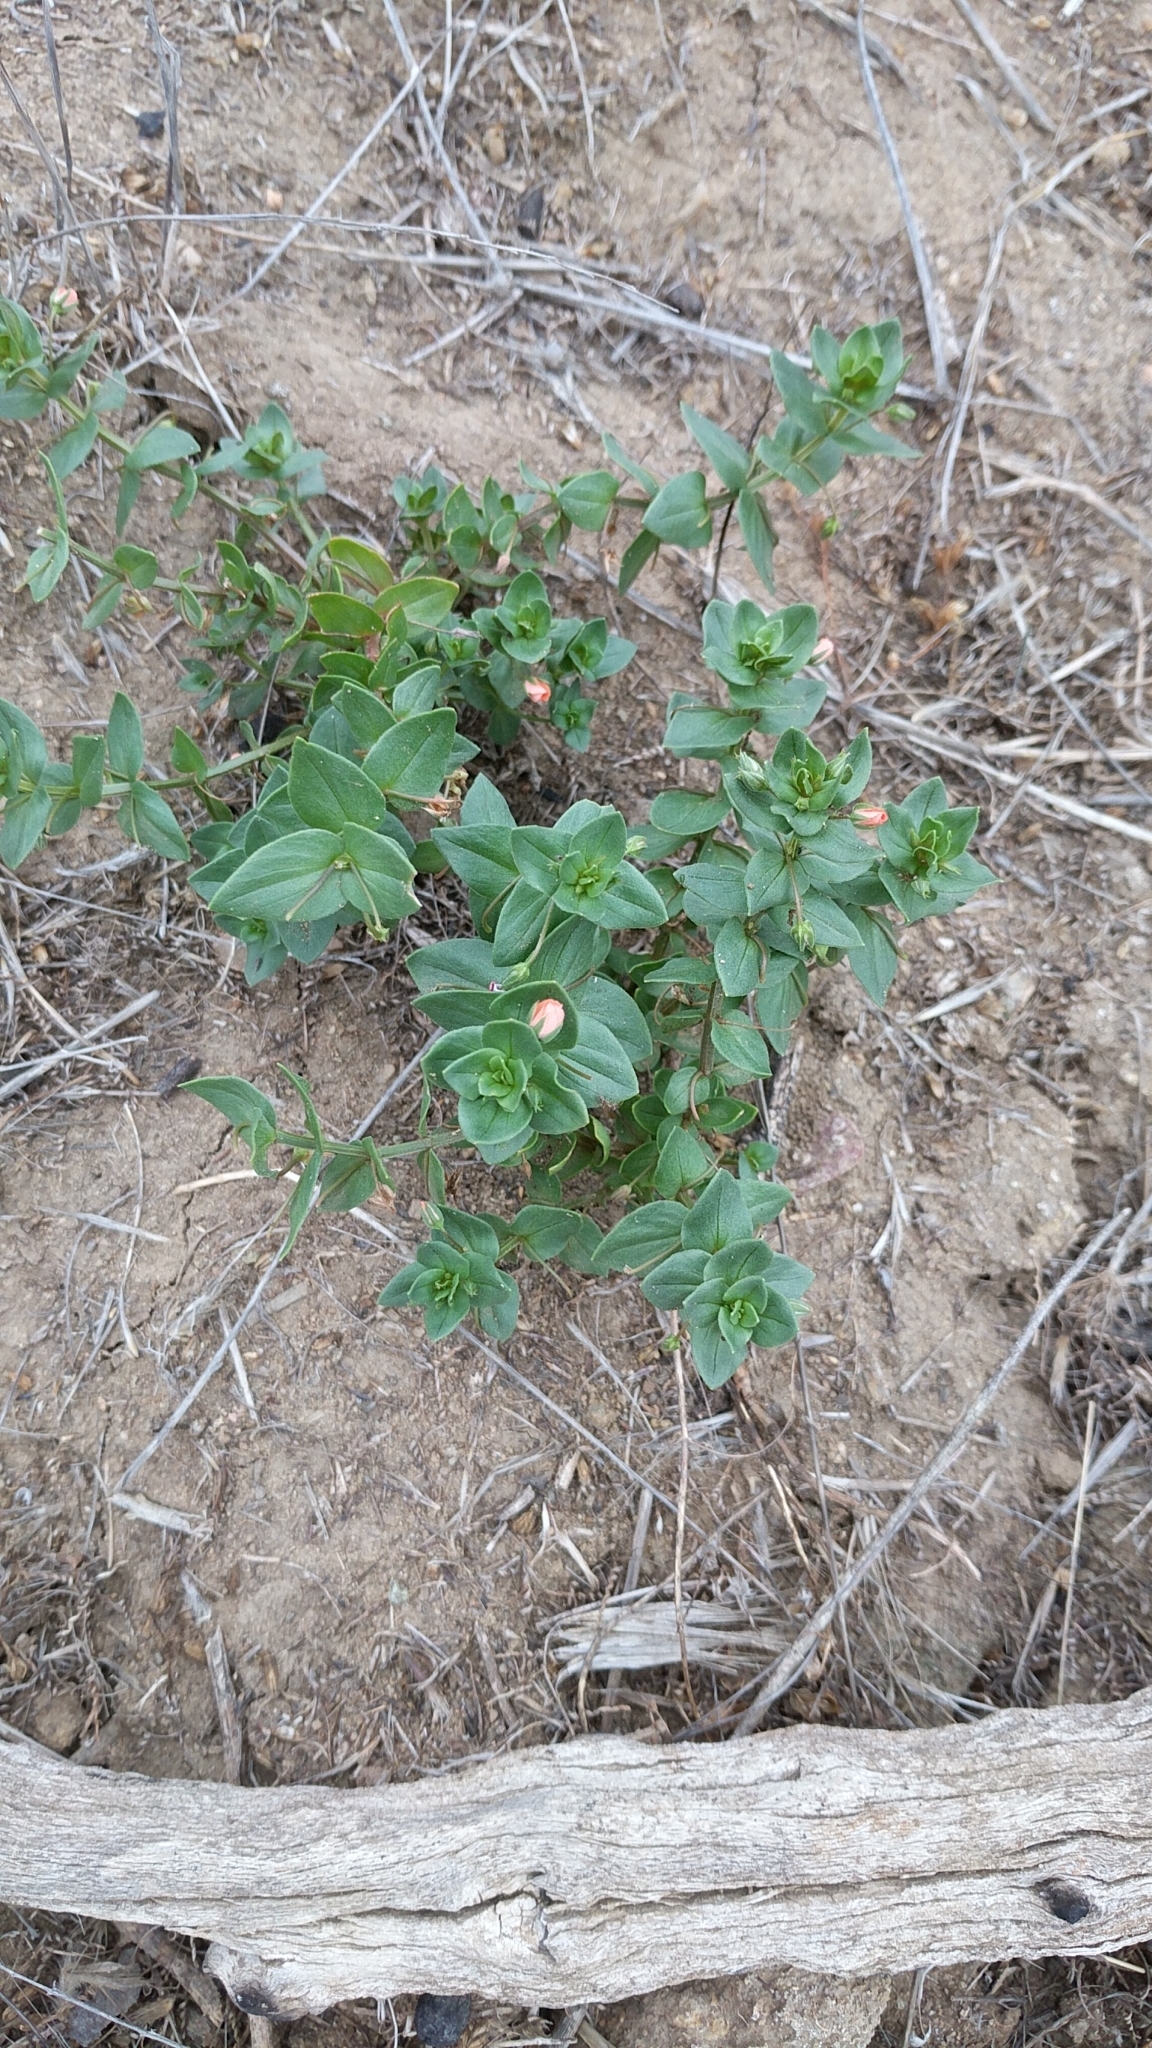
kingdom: Plantae
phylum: Tracheophyta
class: Magnoliopsida
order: Ericales
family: Primulaceae
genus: Lysimachia
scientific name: Lysimachia arvensis
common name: Scarlet pimpernel
